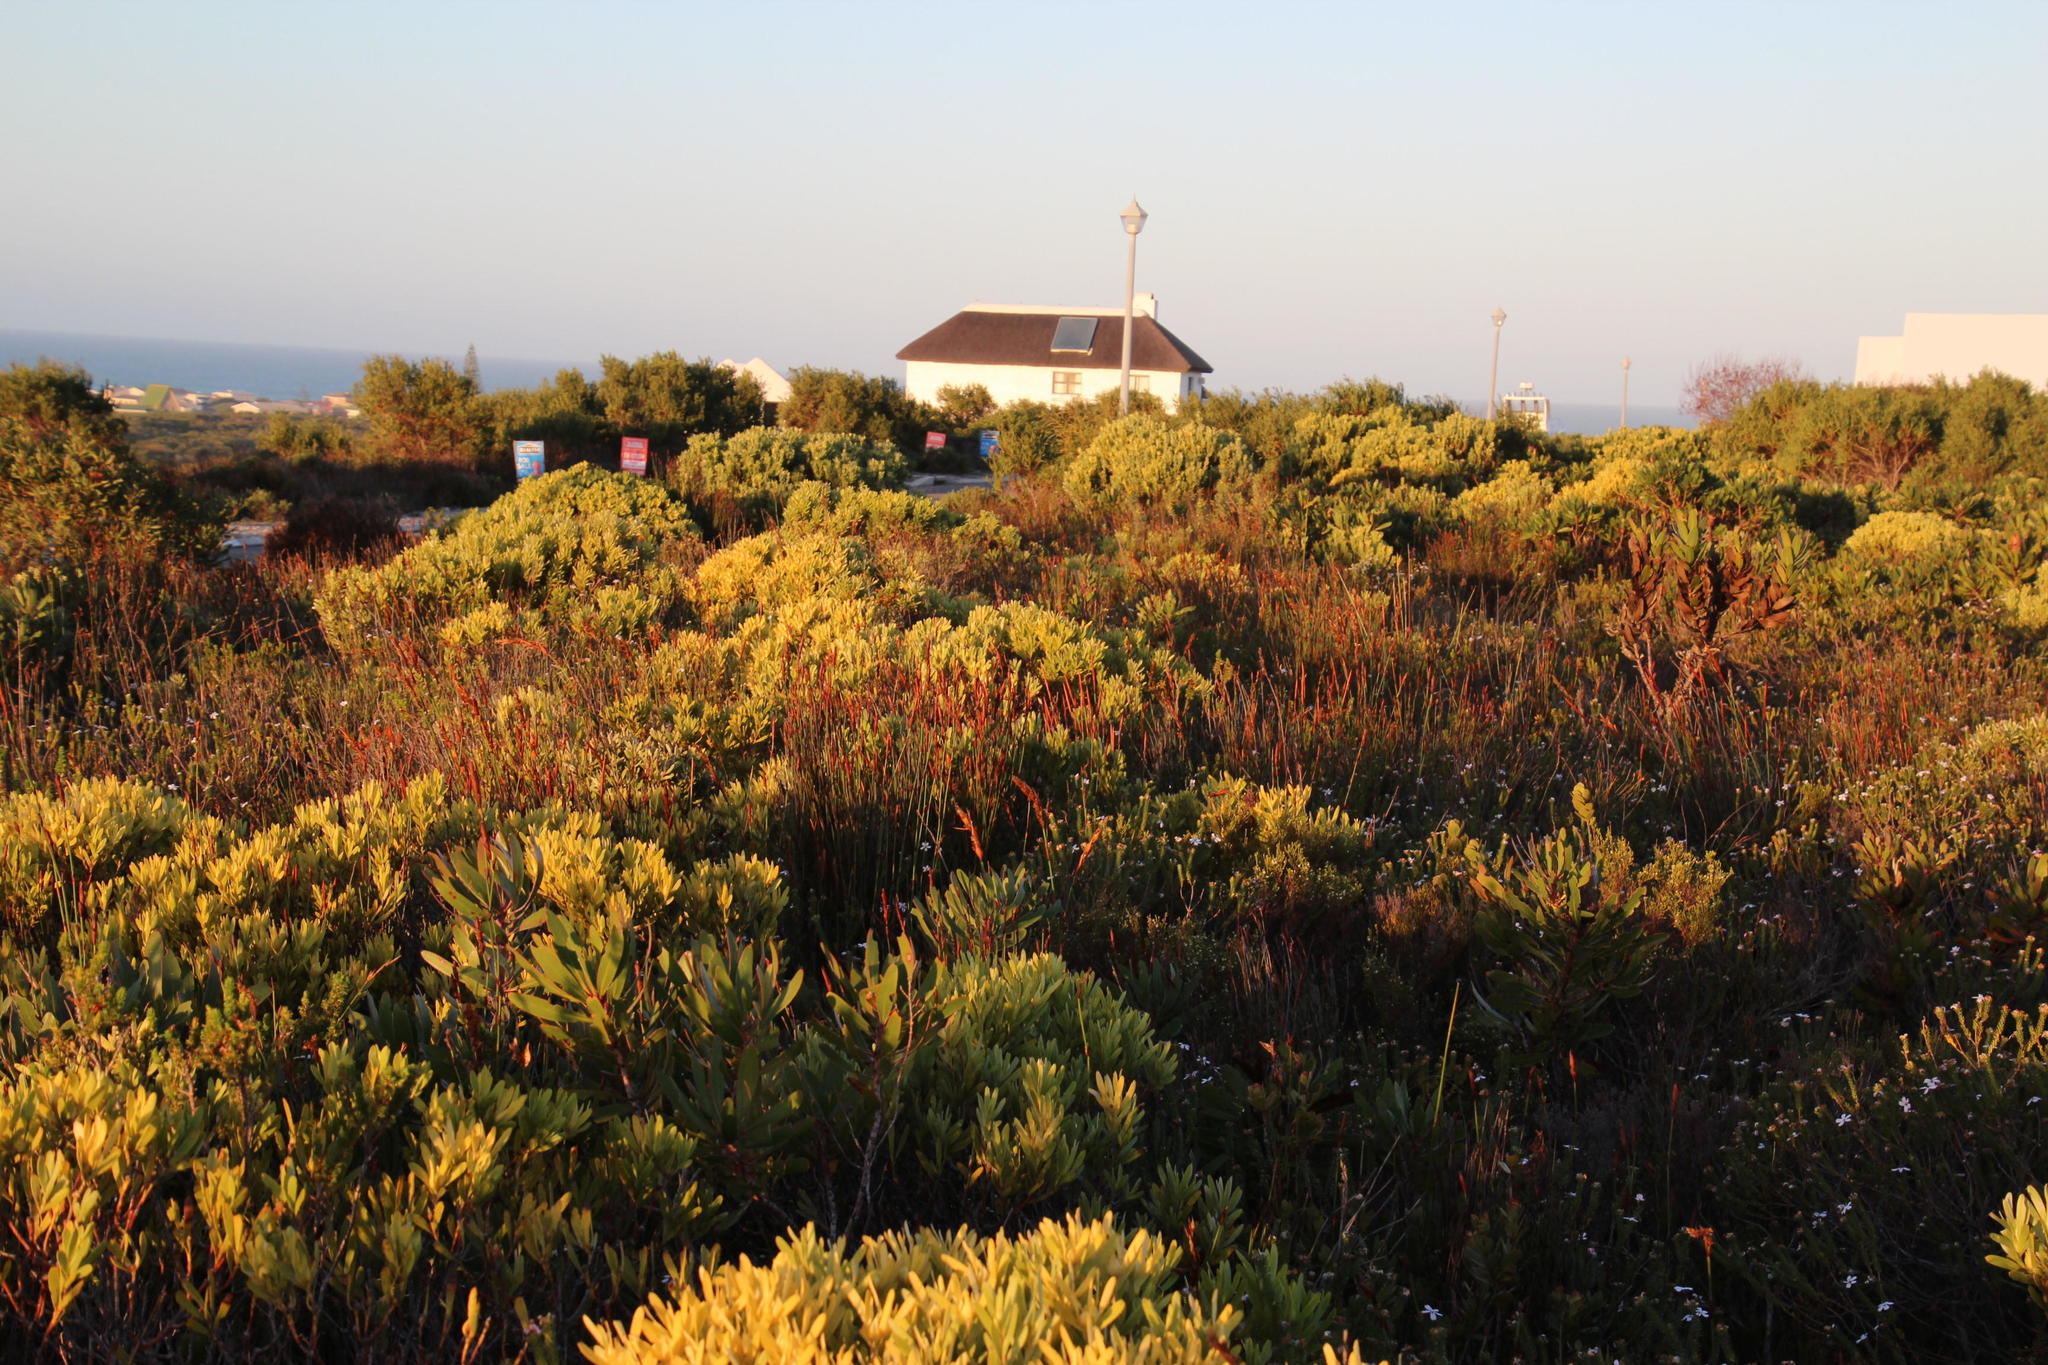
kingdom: Plantae
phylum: Tracheophyta
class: Magnoliopsida
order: Proteales
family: Proteaceae
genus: Leucadendron
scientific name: Leucadendron meridianum
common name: Limestone conebush
